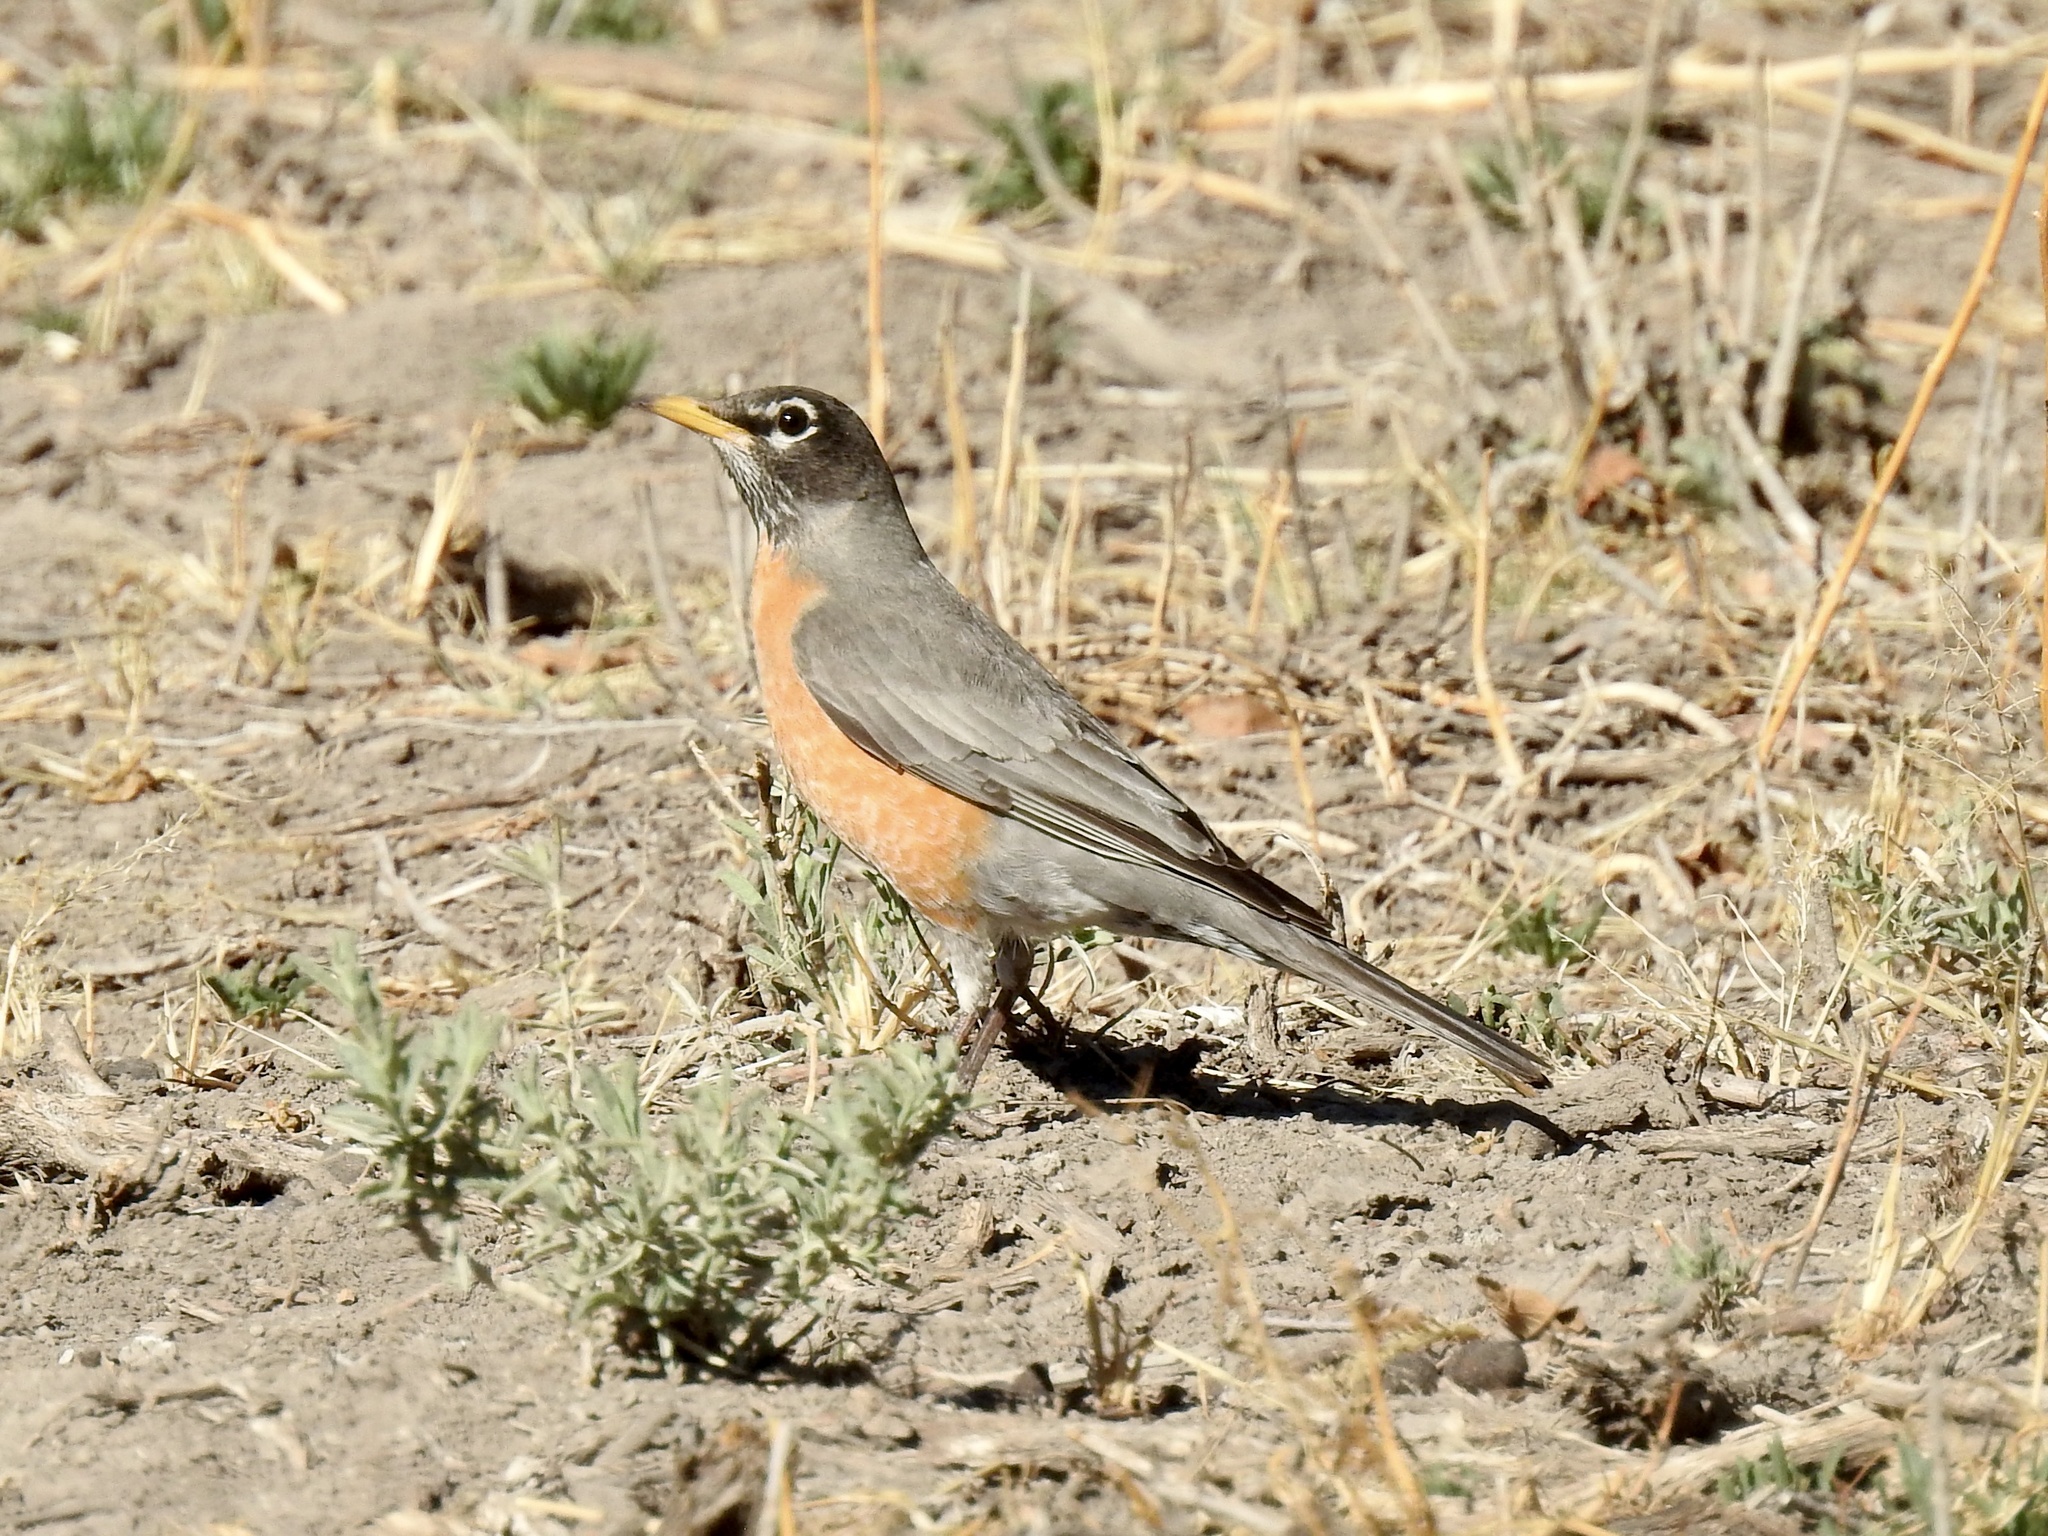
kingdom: Animalia
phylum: Chordata
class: Aves
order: Passeriformes
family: Turdidae
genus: Turdus
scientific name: Turdus migratorius
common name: American robin
